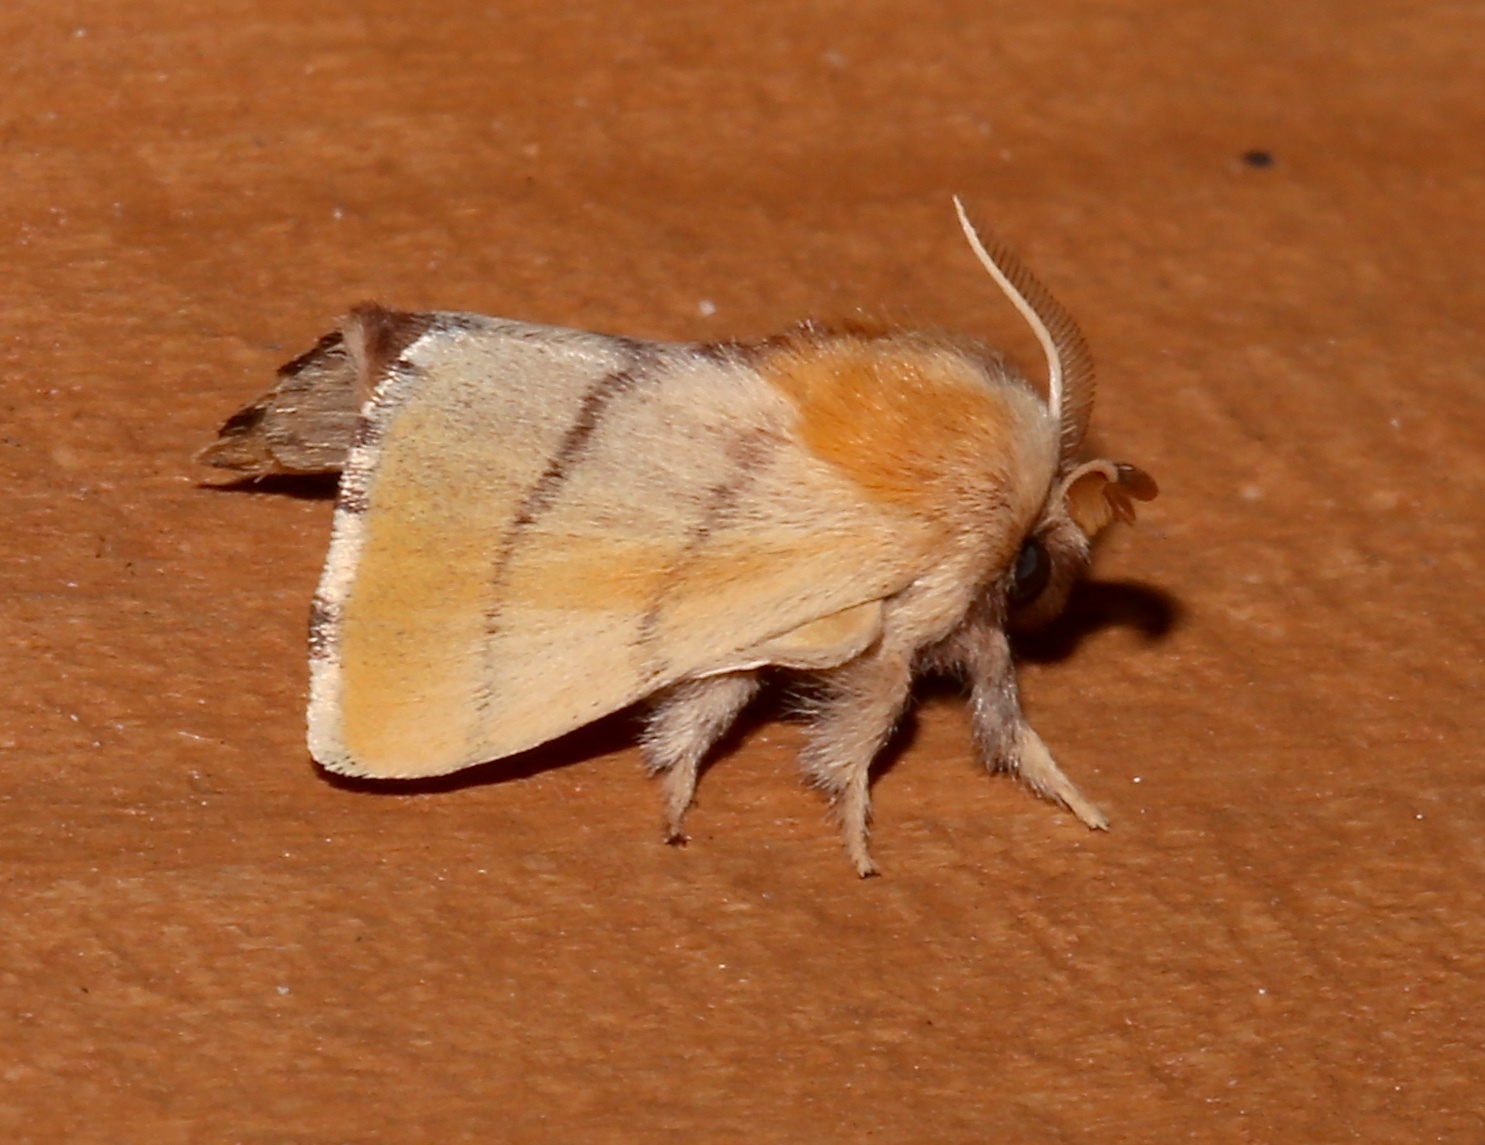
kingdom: Animalia
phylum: Arthropoda
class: Insecta
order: Lepidoptera
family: Lasiocampidae
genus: Malacosoma
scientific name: Malacosoma disstria
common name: Forest tent caterpillar
